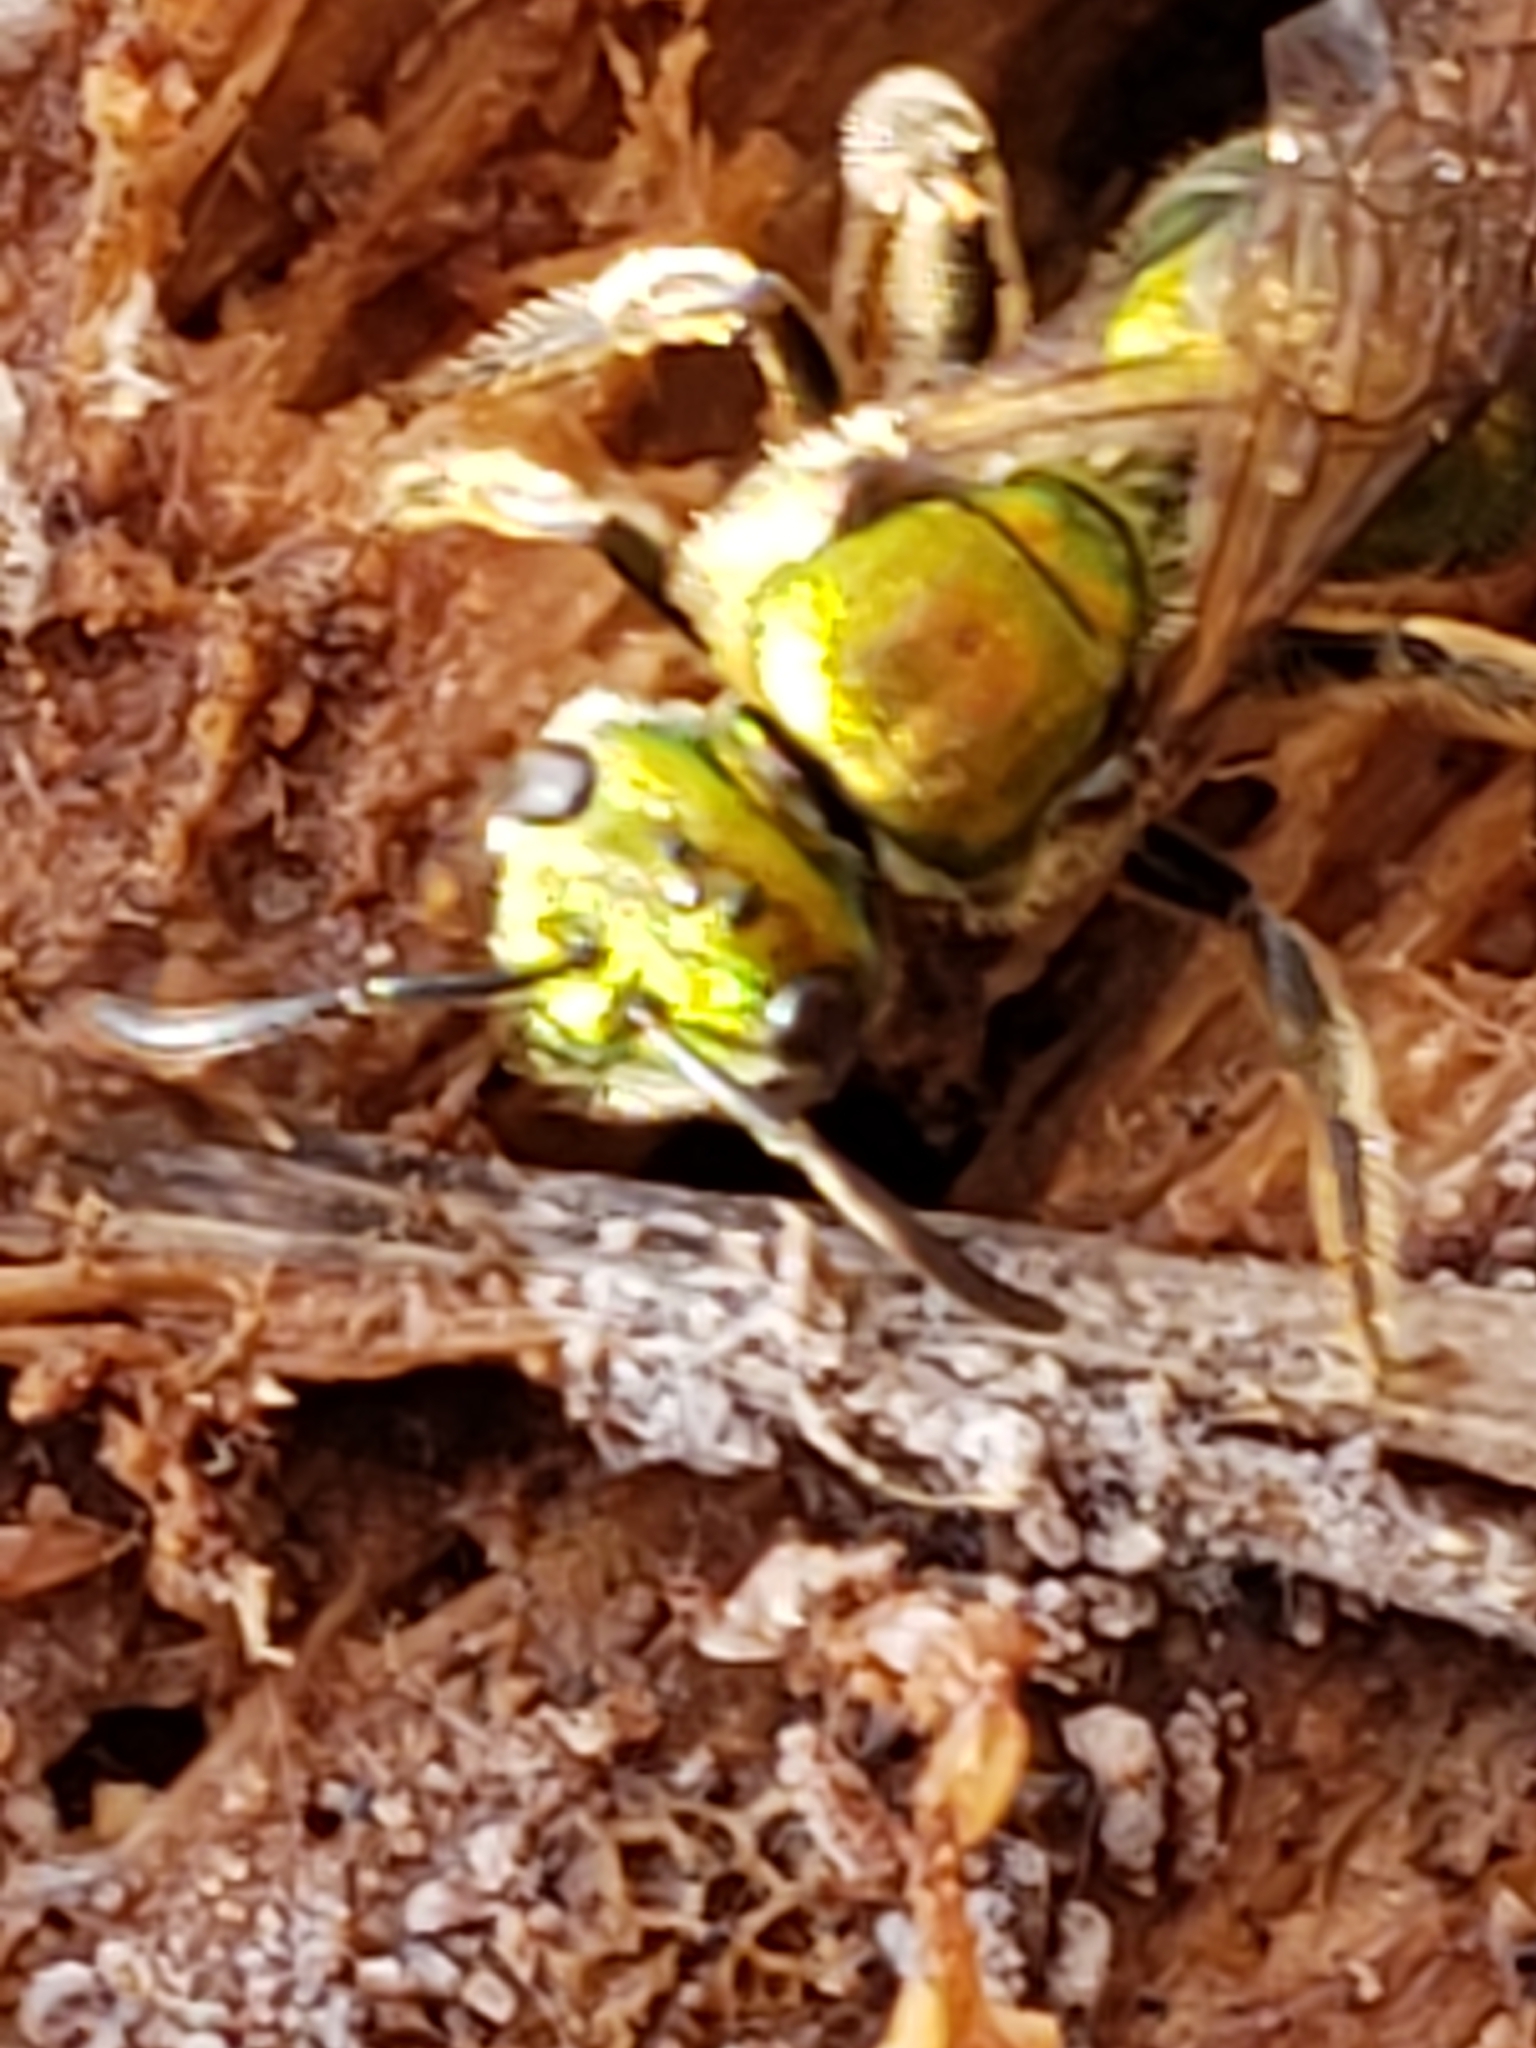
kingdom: Animalia
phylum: Arthropoda
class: Insecta
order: Hymenoptera
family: Halictidae
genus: Augochlora
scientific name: Augochlora pura
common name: Pure green sweat bee
